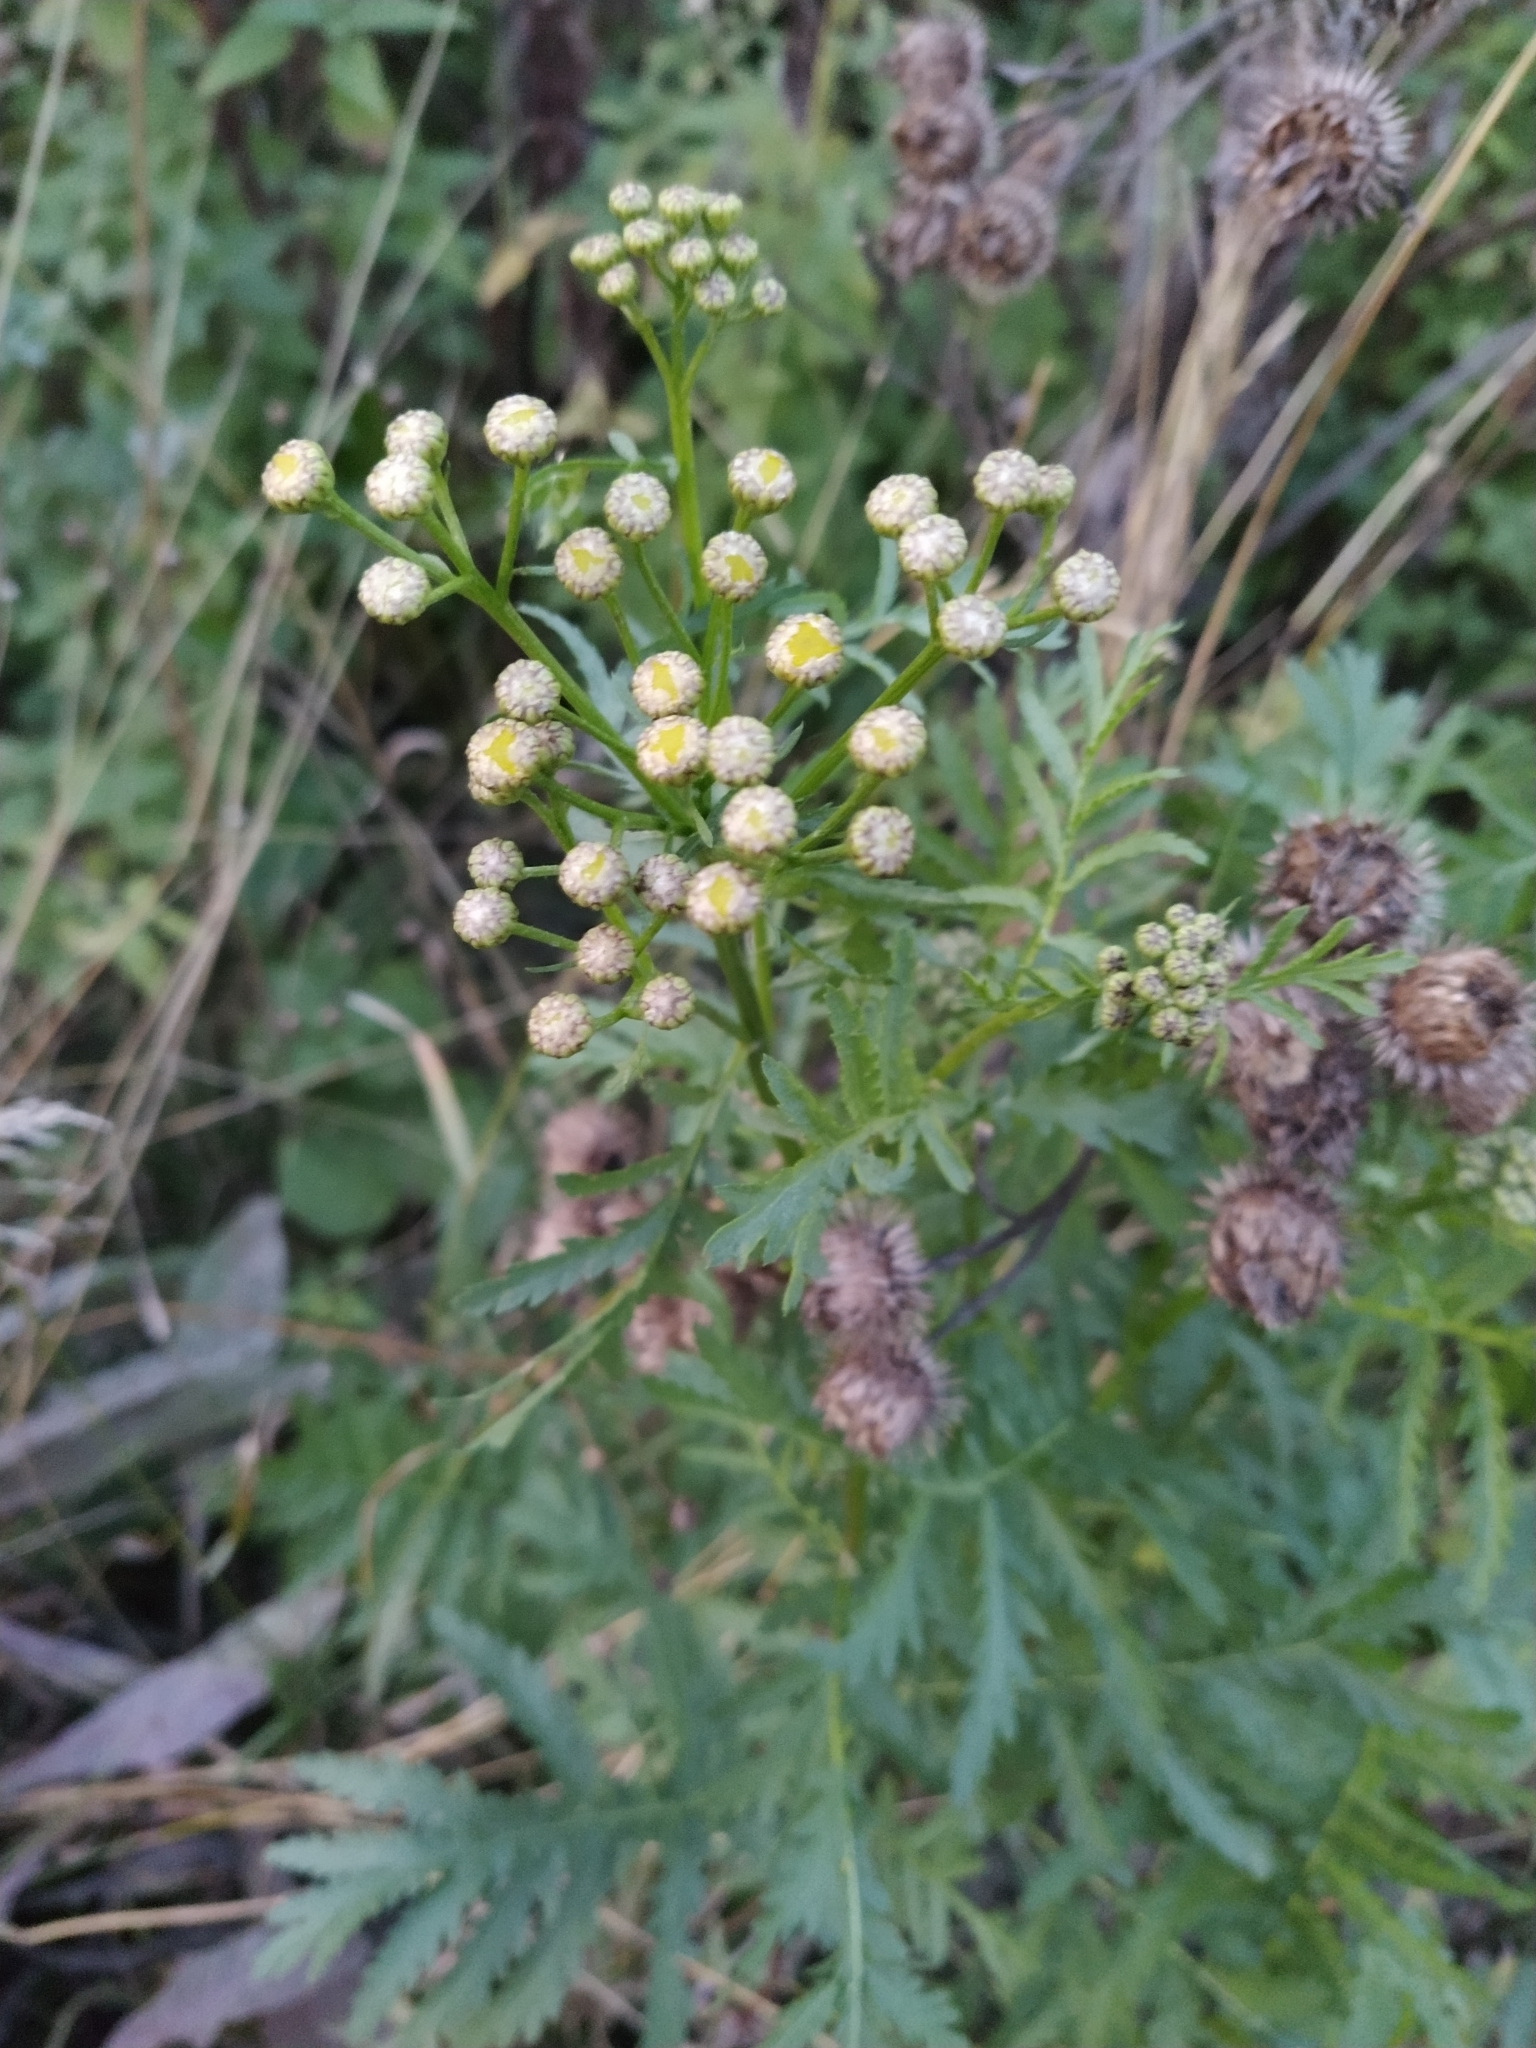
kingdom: Plantae
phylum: Tracheophyta
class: Magnoliopsida
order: Asterales
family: Asteraceae
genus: Tanacetum
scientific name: Tanacetum vulgare
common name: Common tansy
